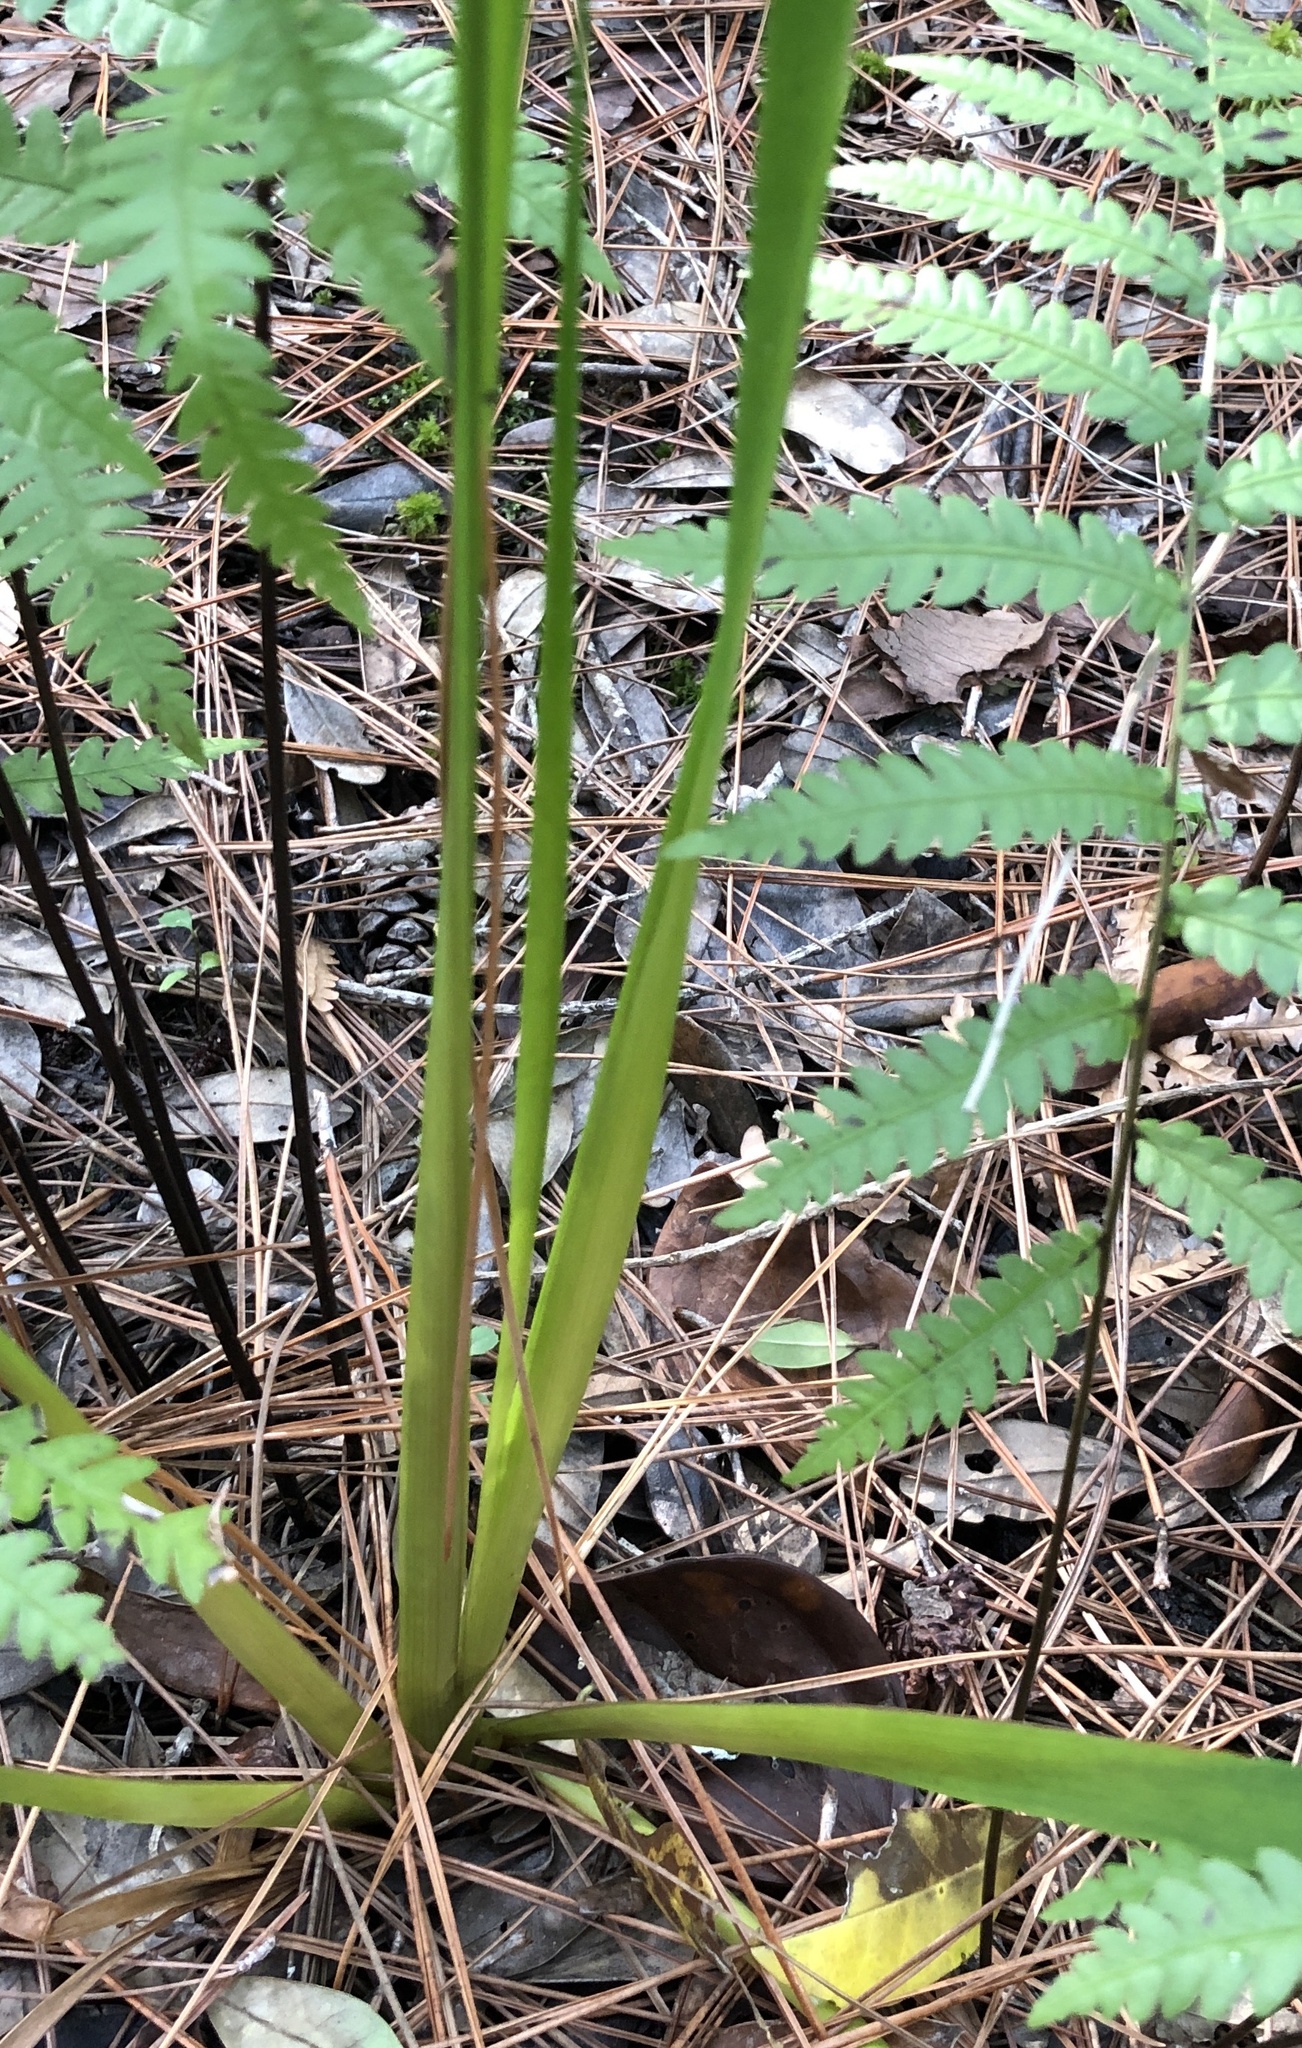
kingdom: Plantae
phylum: Tracheophyta
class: Liliopsida
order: Poales
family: Xyridaceae
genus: Xyris
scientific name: Xyris fimbriata
